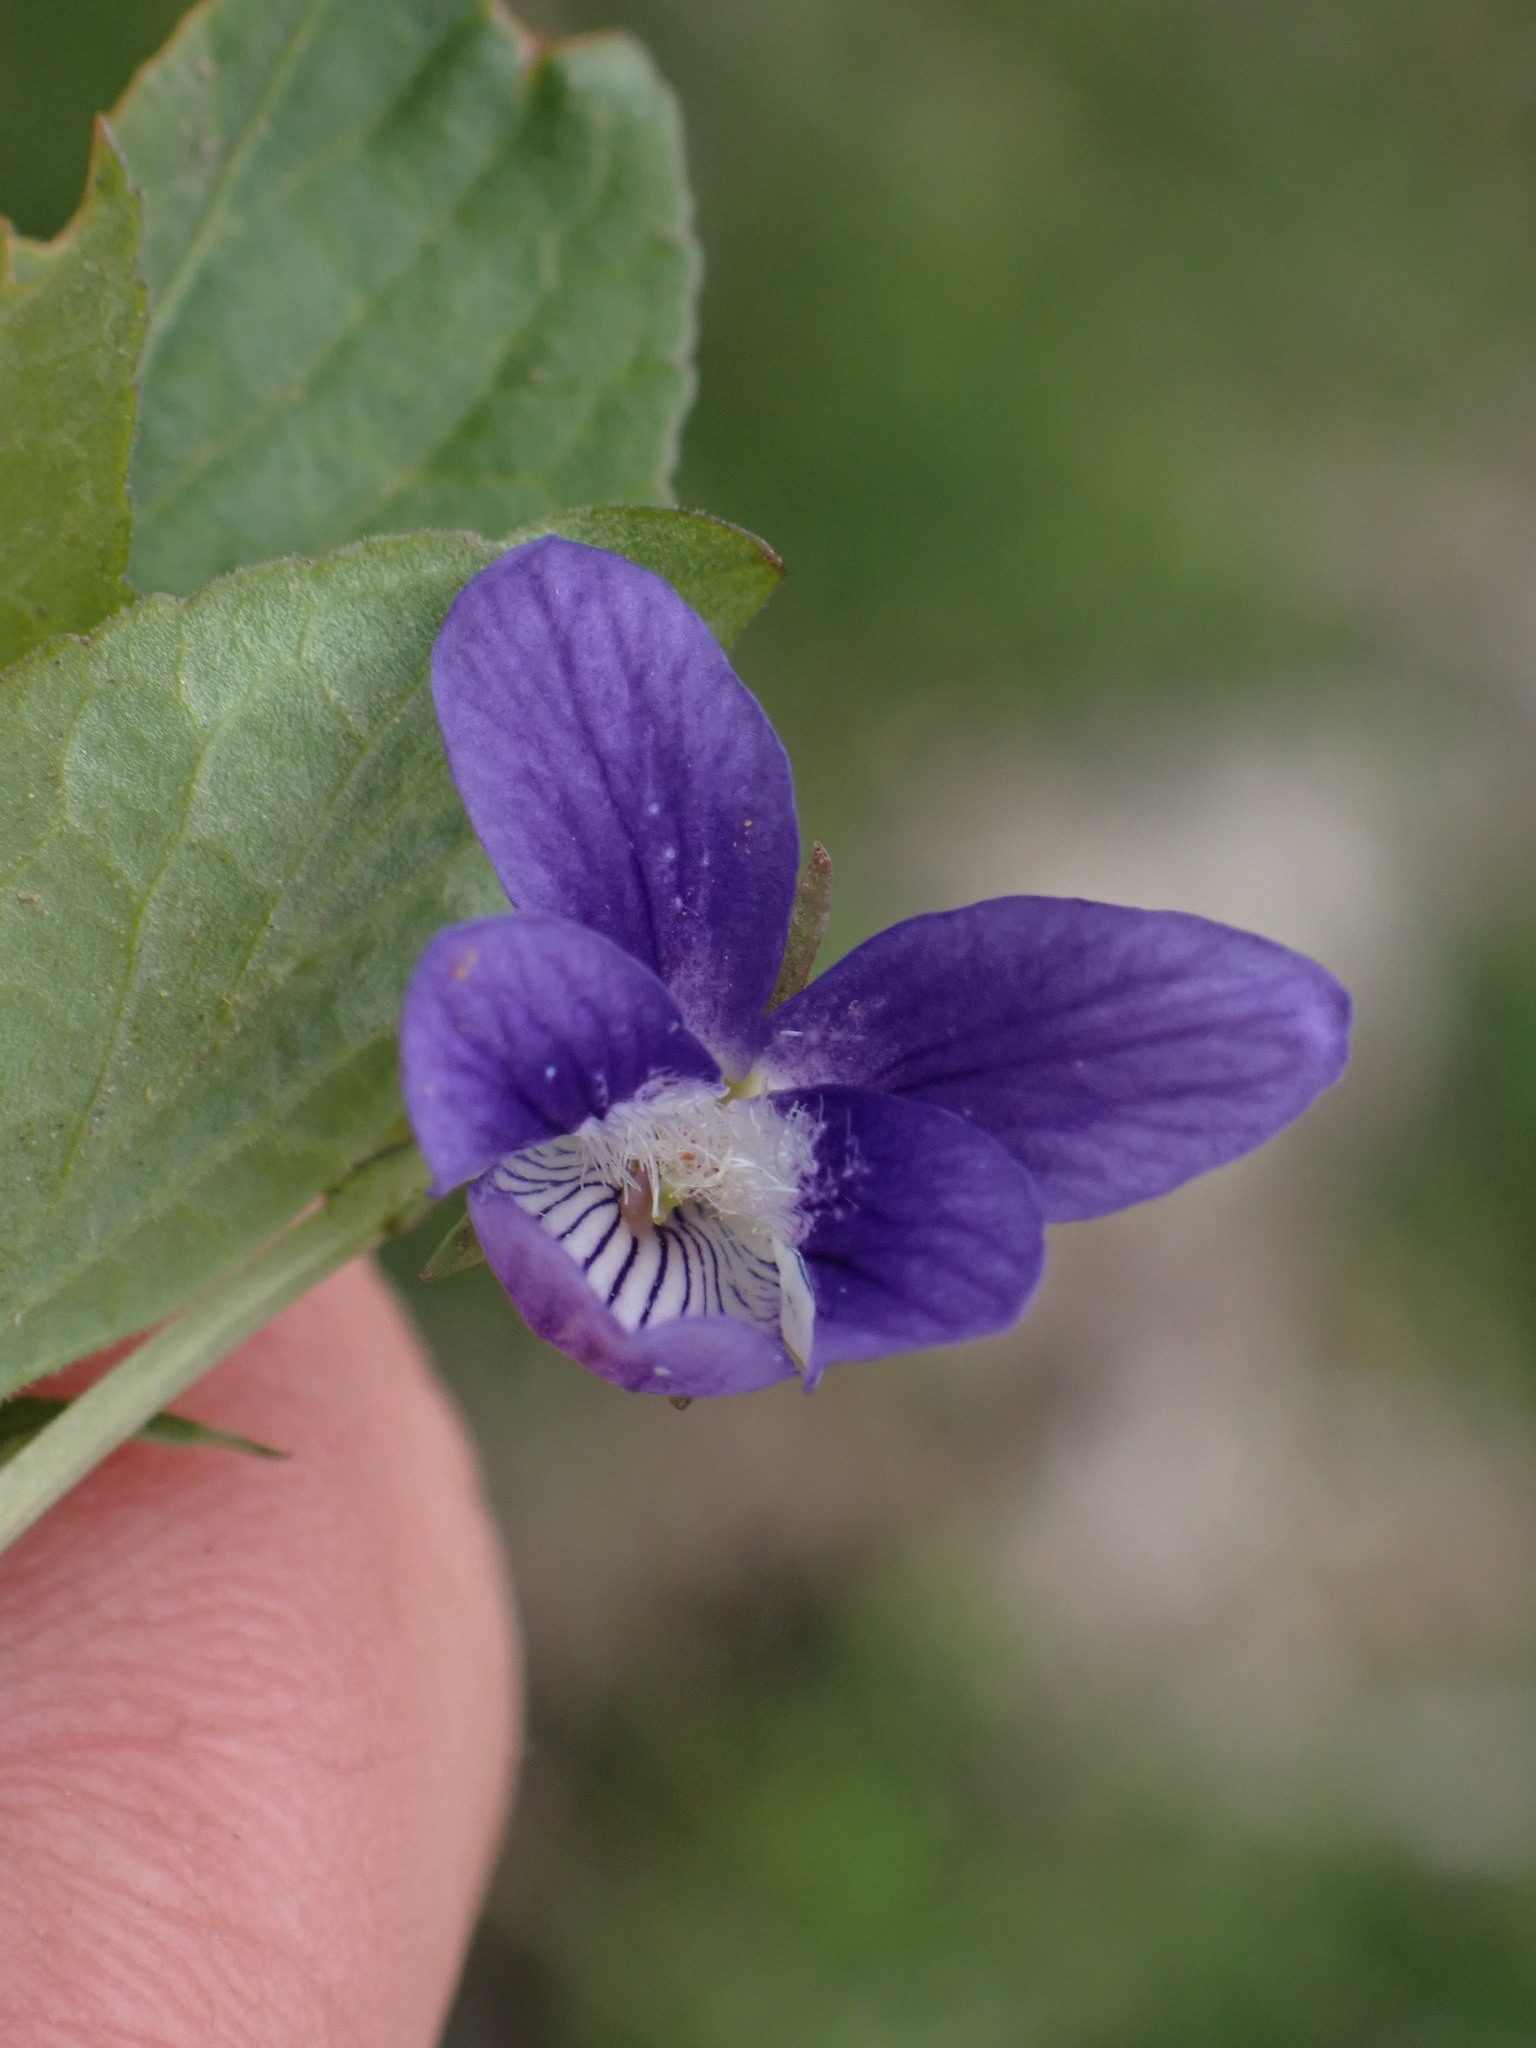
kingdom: Plantae
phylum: Tracheophyta
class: Magnoliopsida
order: Malpighiales
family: Violaceae
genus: Viola
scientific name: Viola adunca
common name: Sand violet
